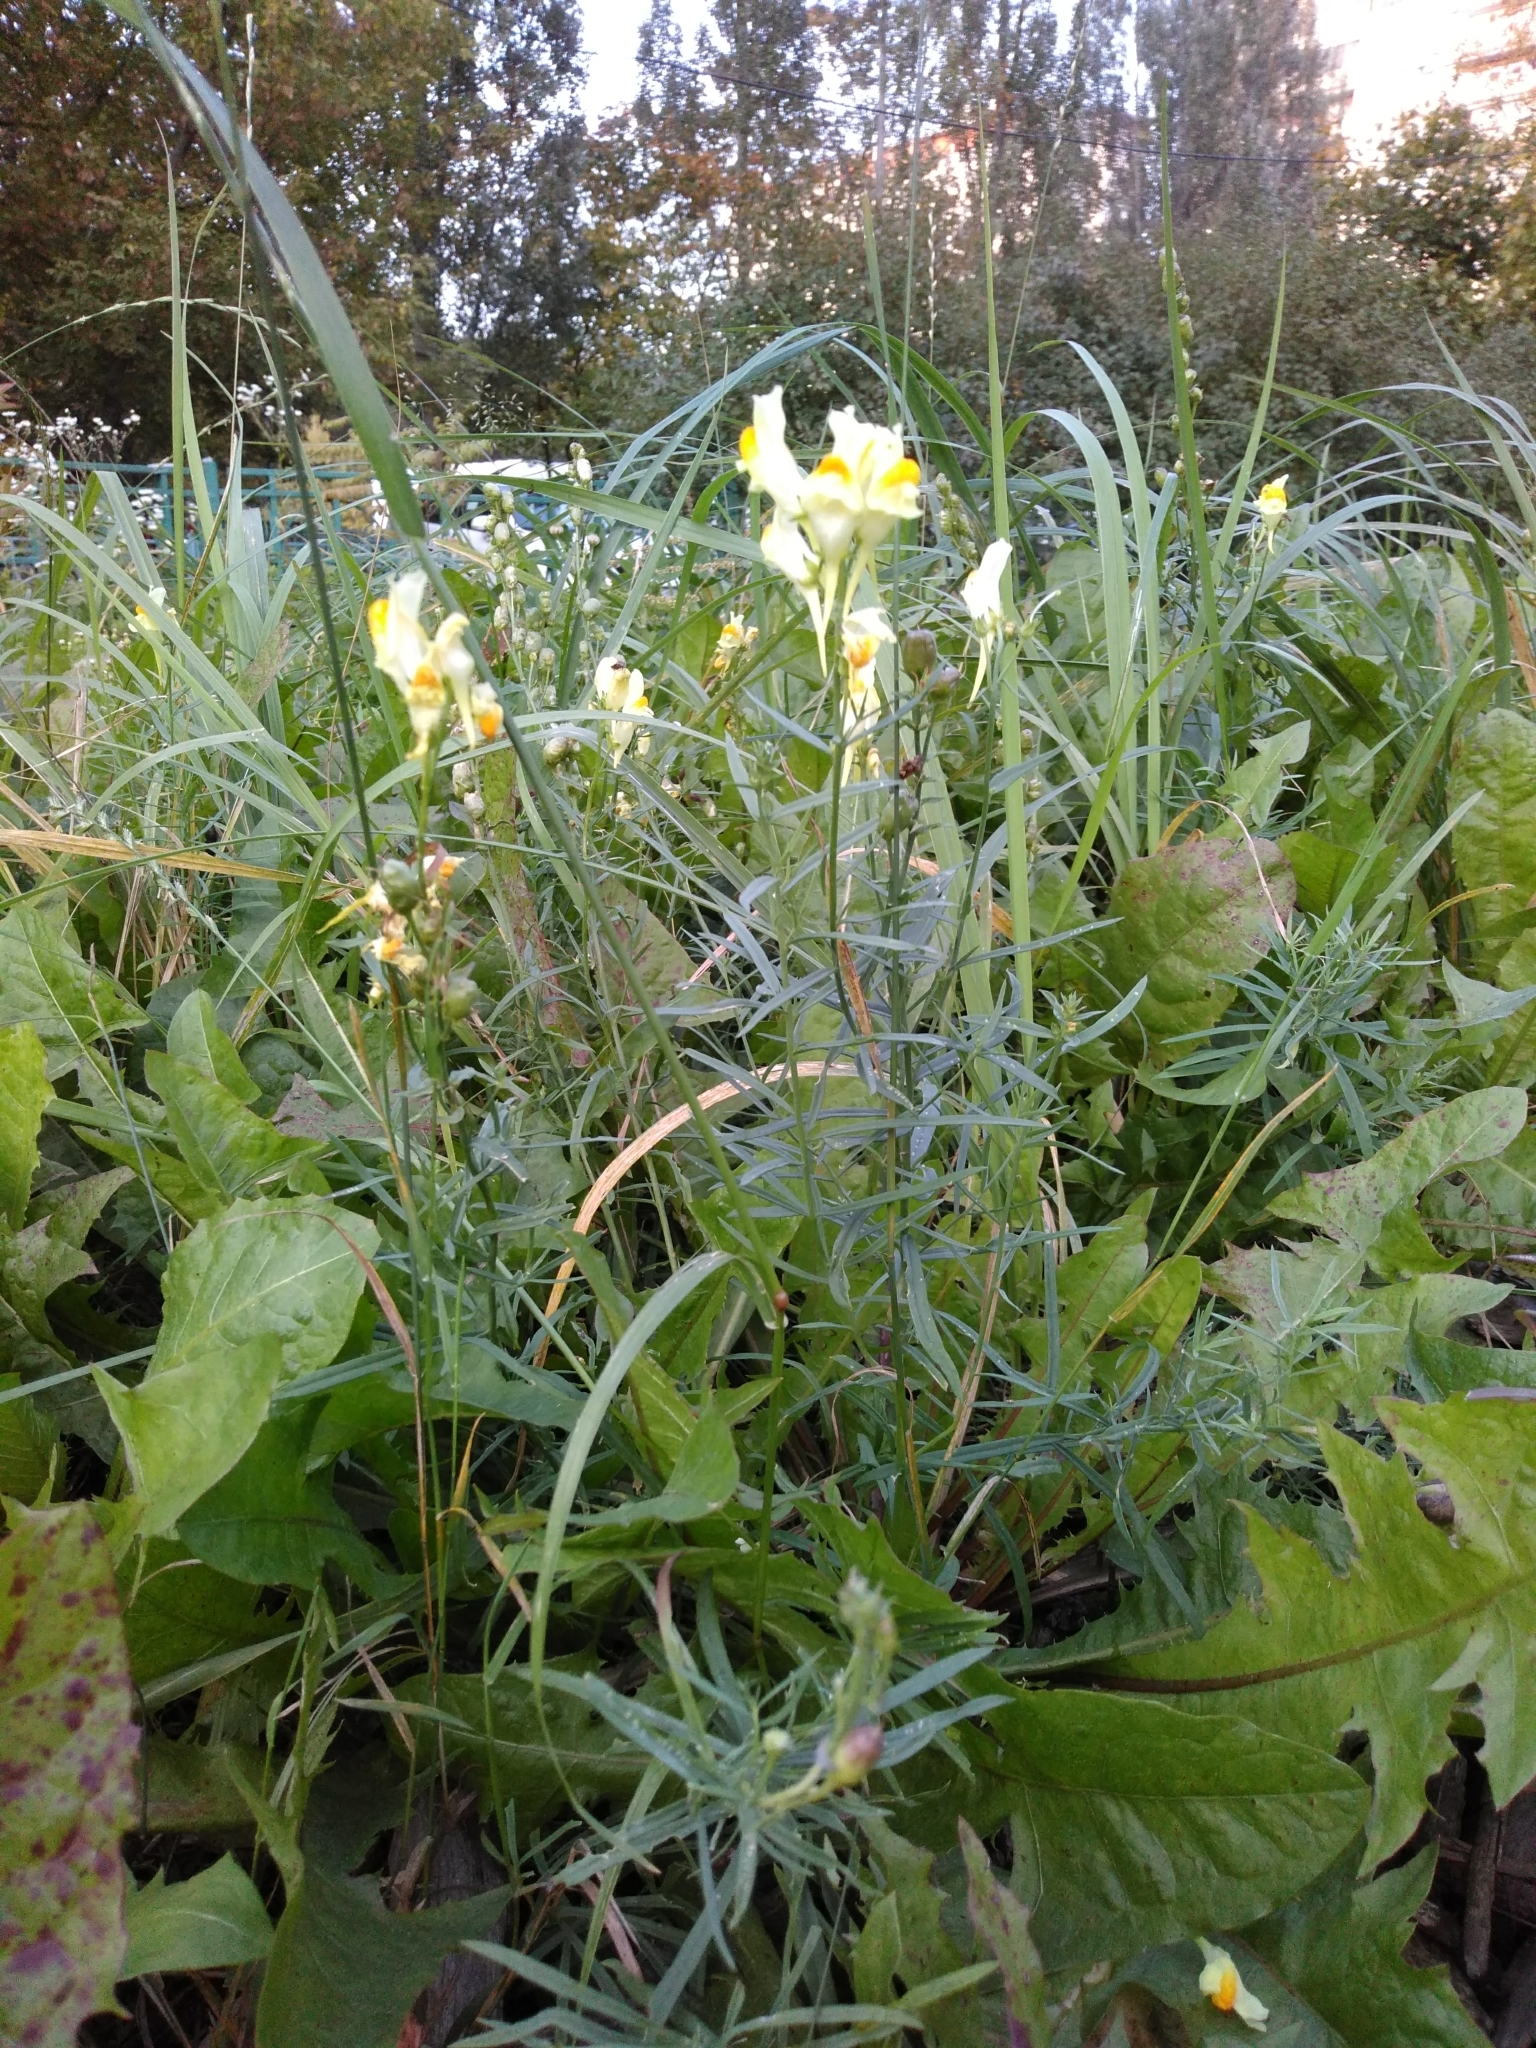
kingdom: Plantae
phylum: Tracheophyta
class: Magnoliopsida
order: Lamiales
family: Plantaginaceae
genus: Linaria
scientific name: Linaria vulgaris
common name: Butter and eggs
